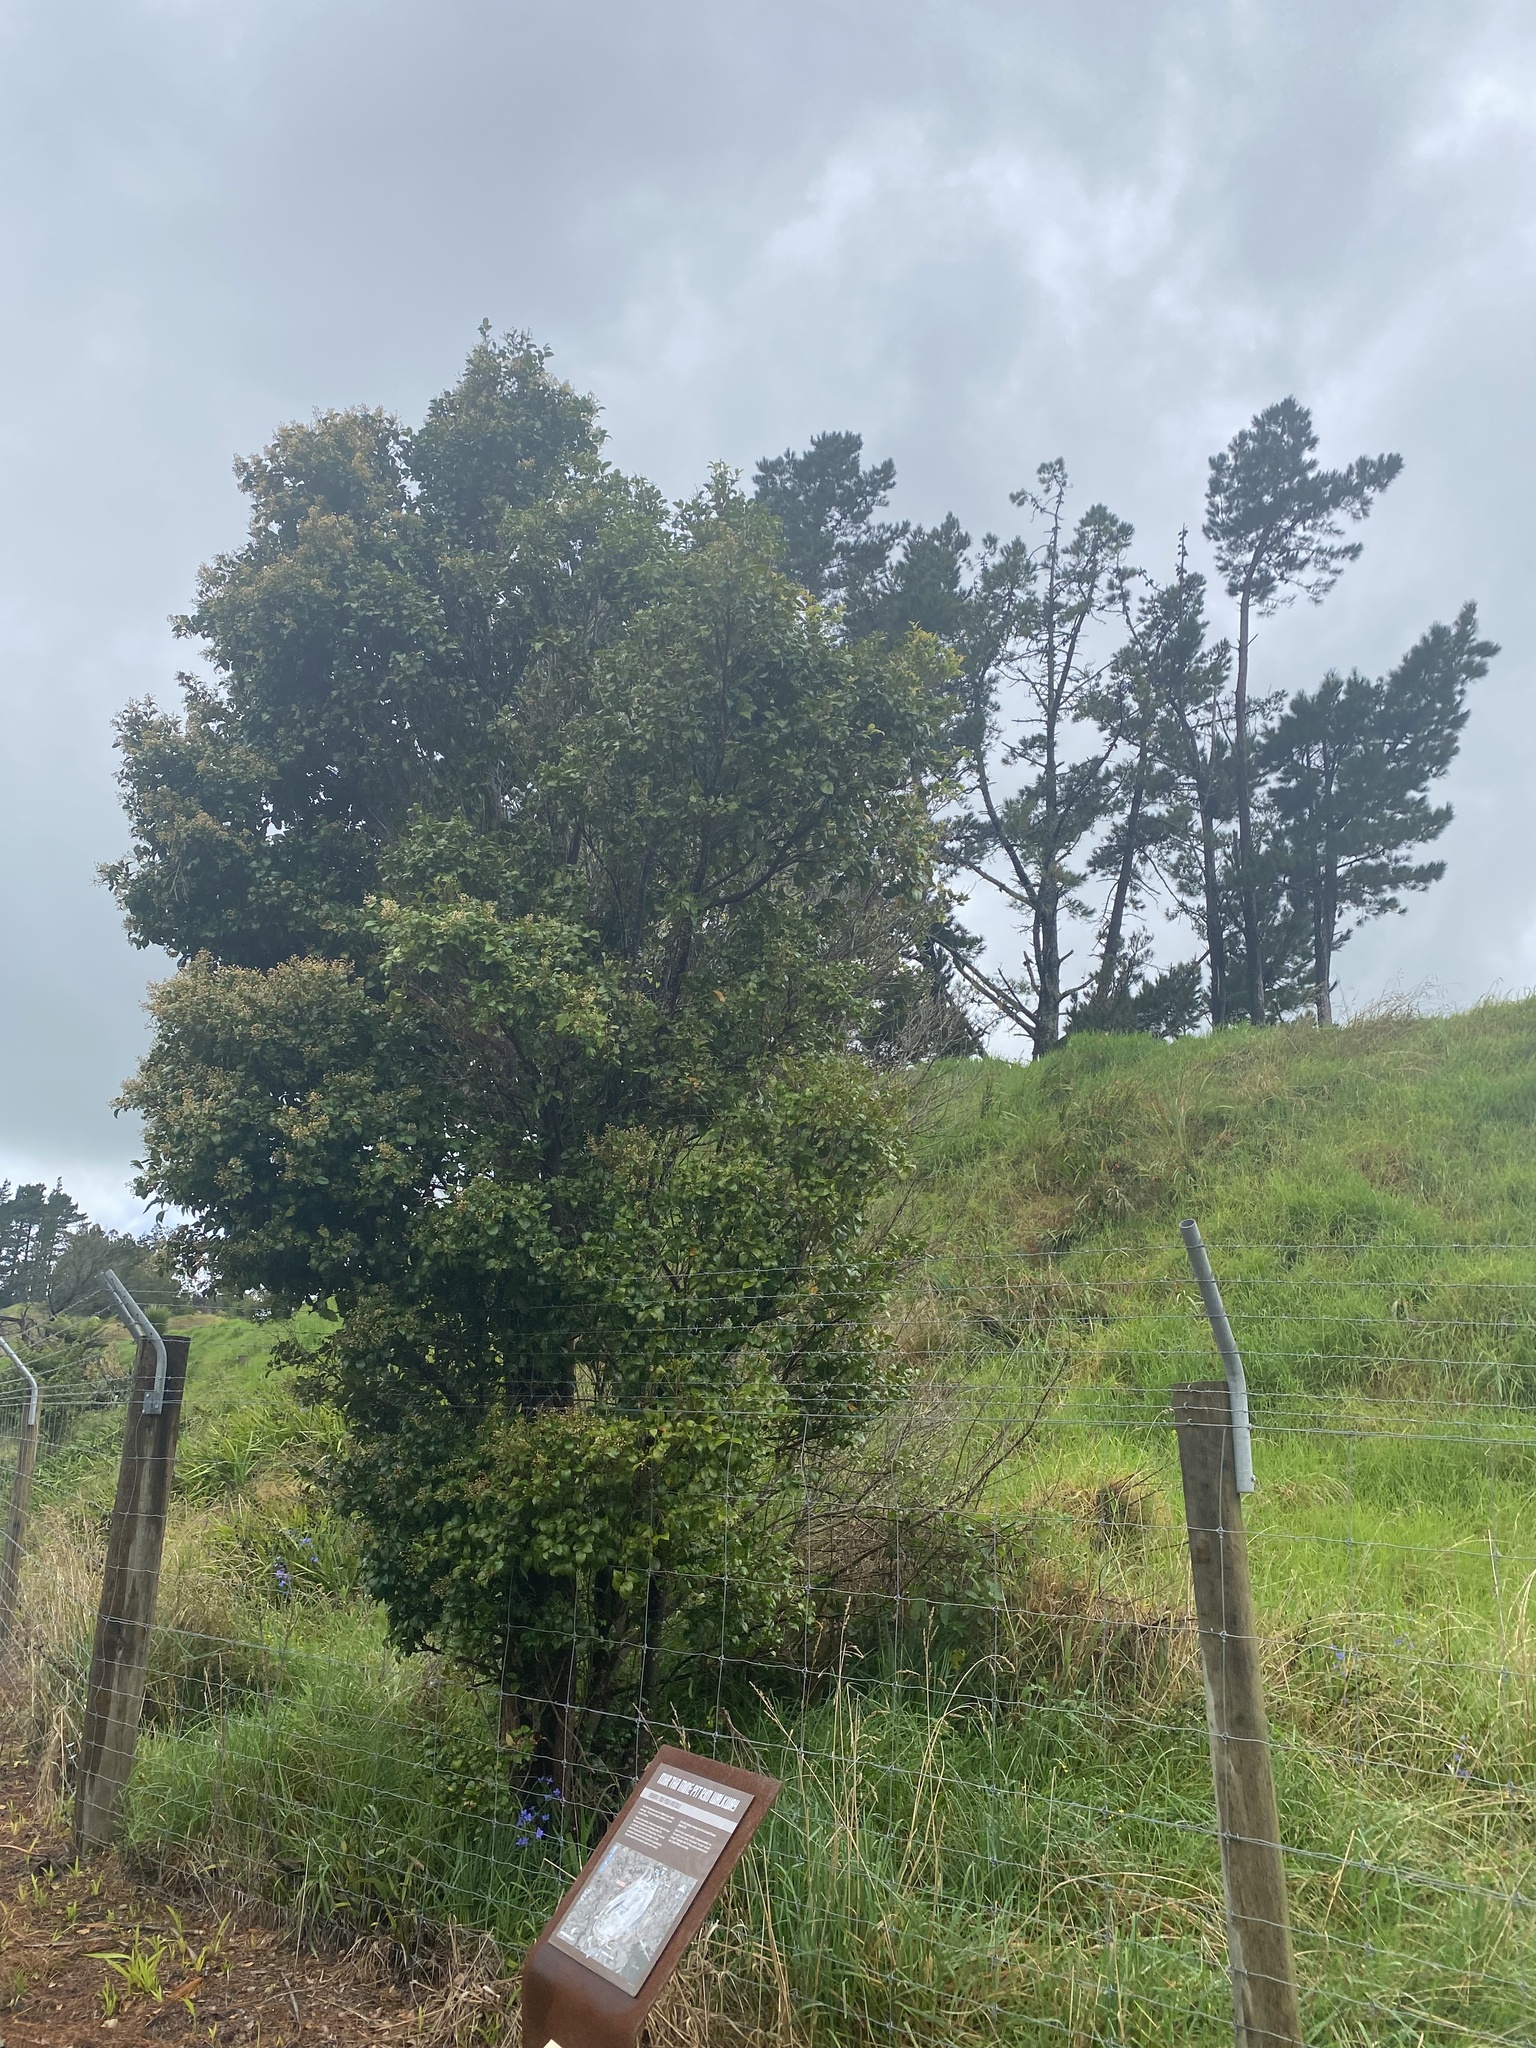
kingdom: Plantae
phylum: Tracheophyta
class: Magnoliopsida
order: Myrtales
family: Myrtaceae
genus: Syzygium
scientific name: Syzygium smithii
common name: Lilly-pilly
